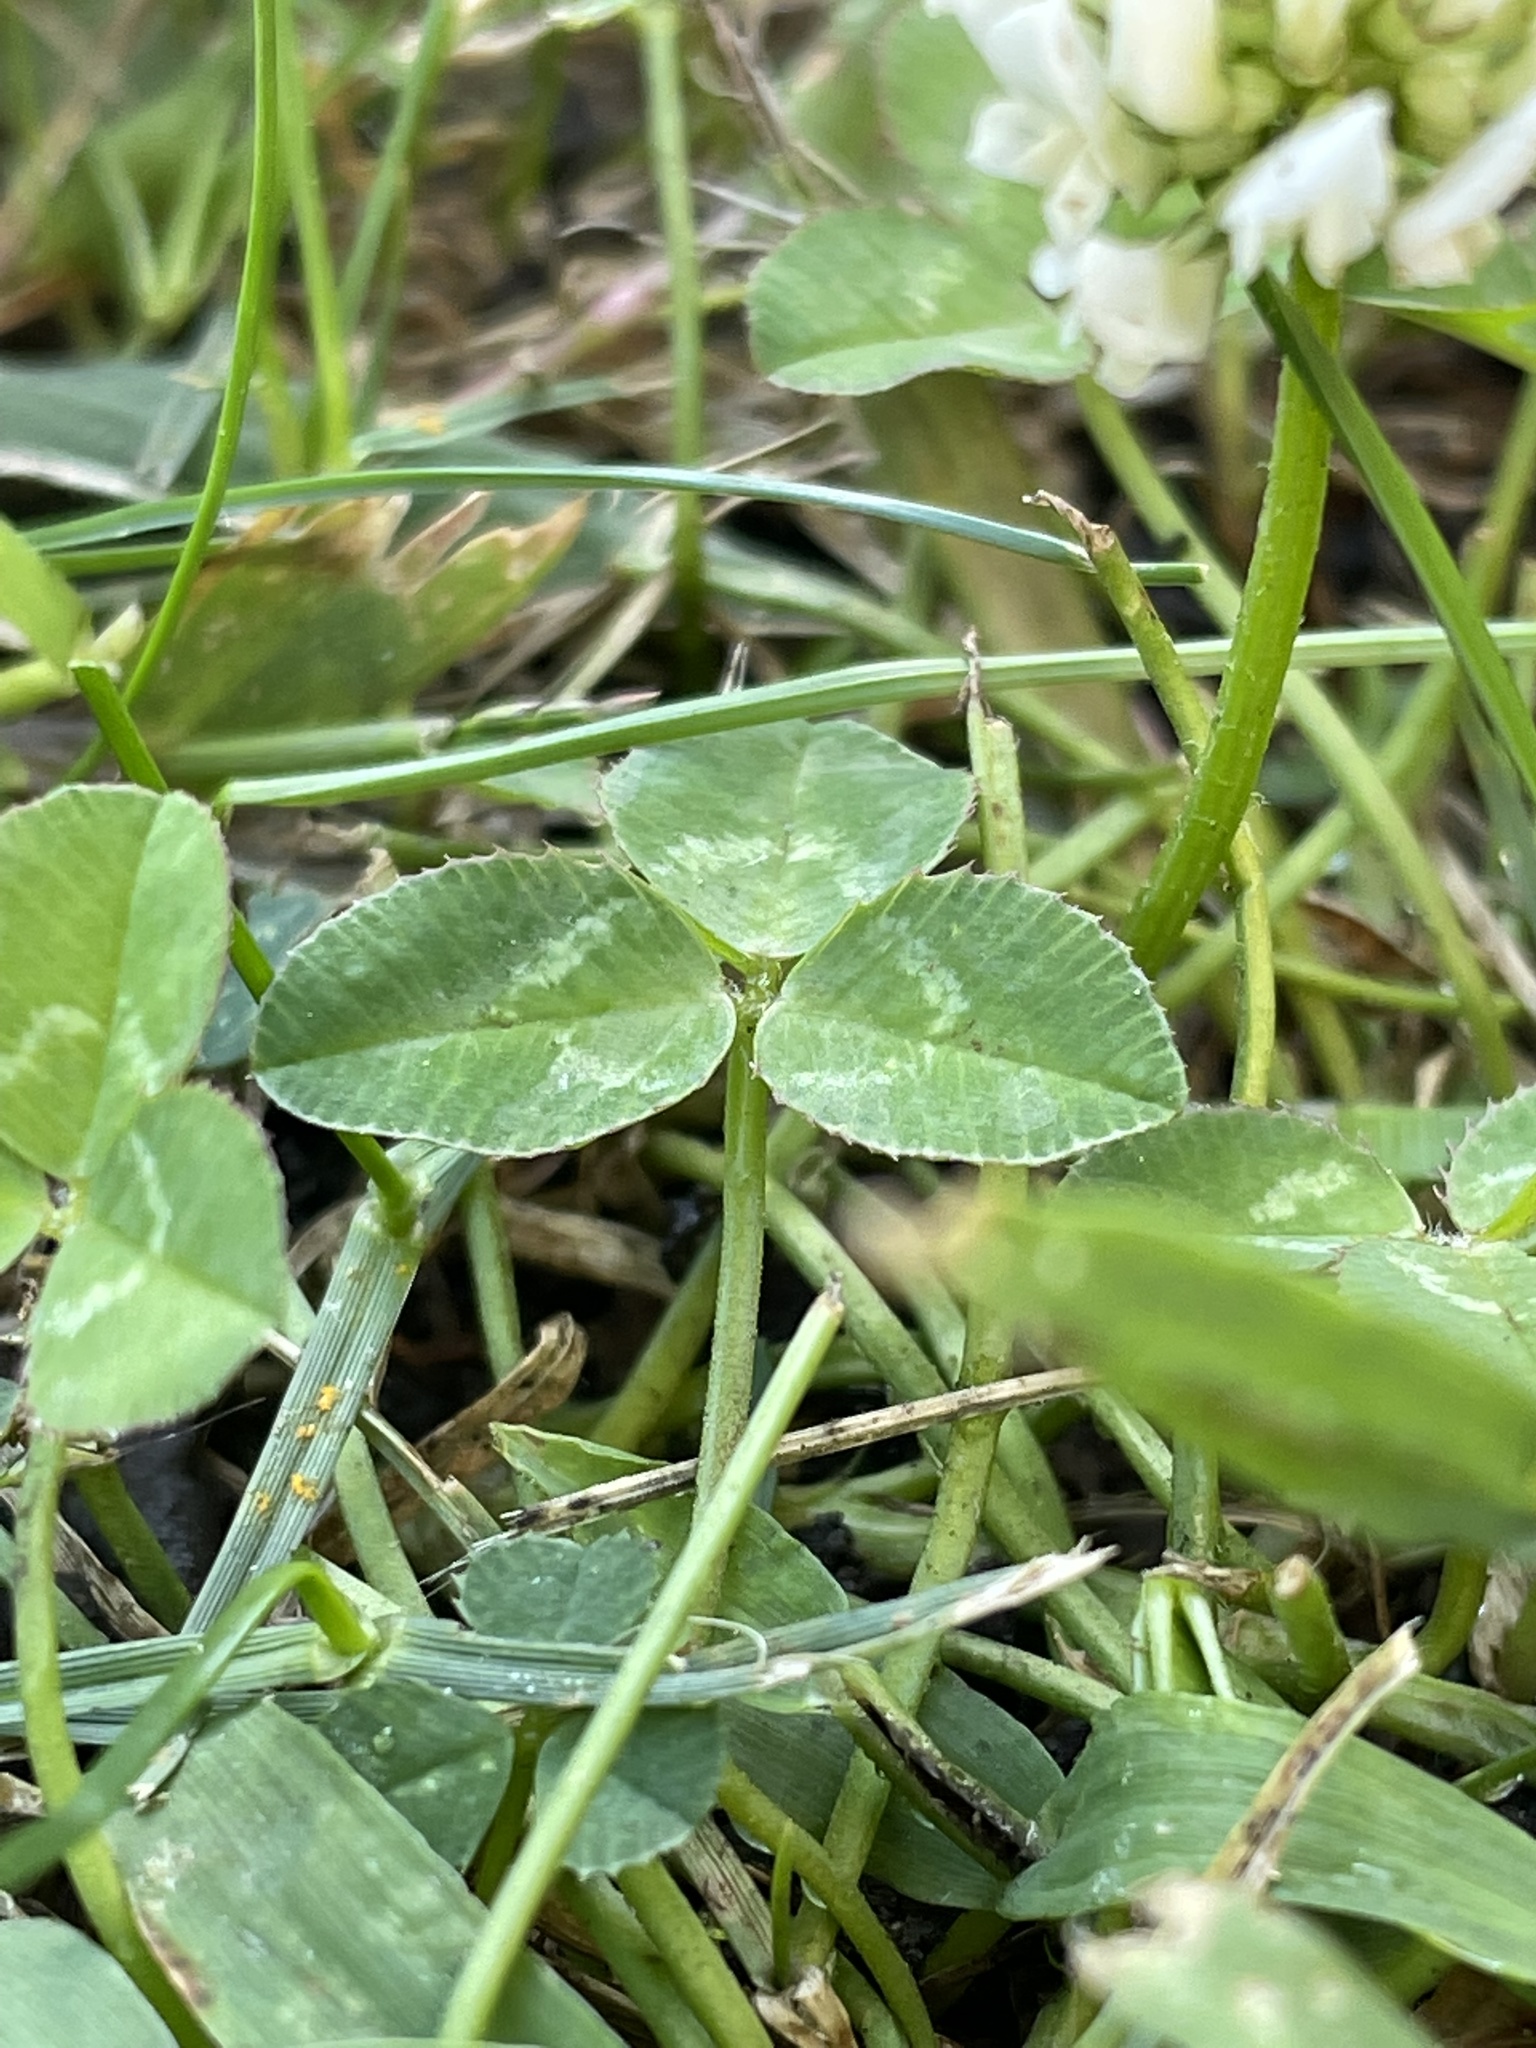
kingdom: Plantae
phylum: Tracheophyta
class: Magnoliopsida
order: Fabales
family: Fabaceae
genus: Trifolium
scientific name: Trifolium repens
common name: White clover
